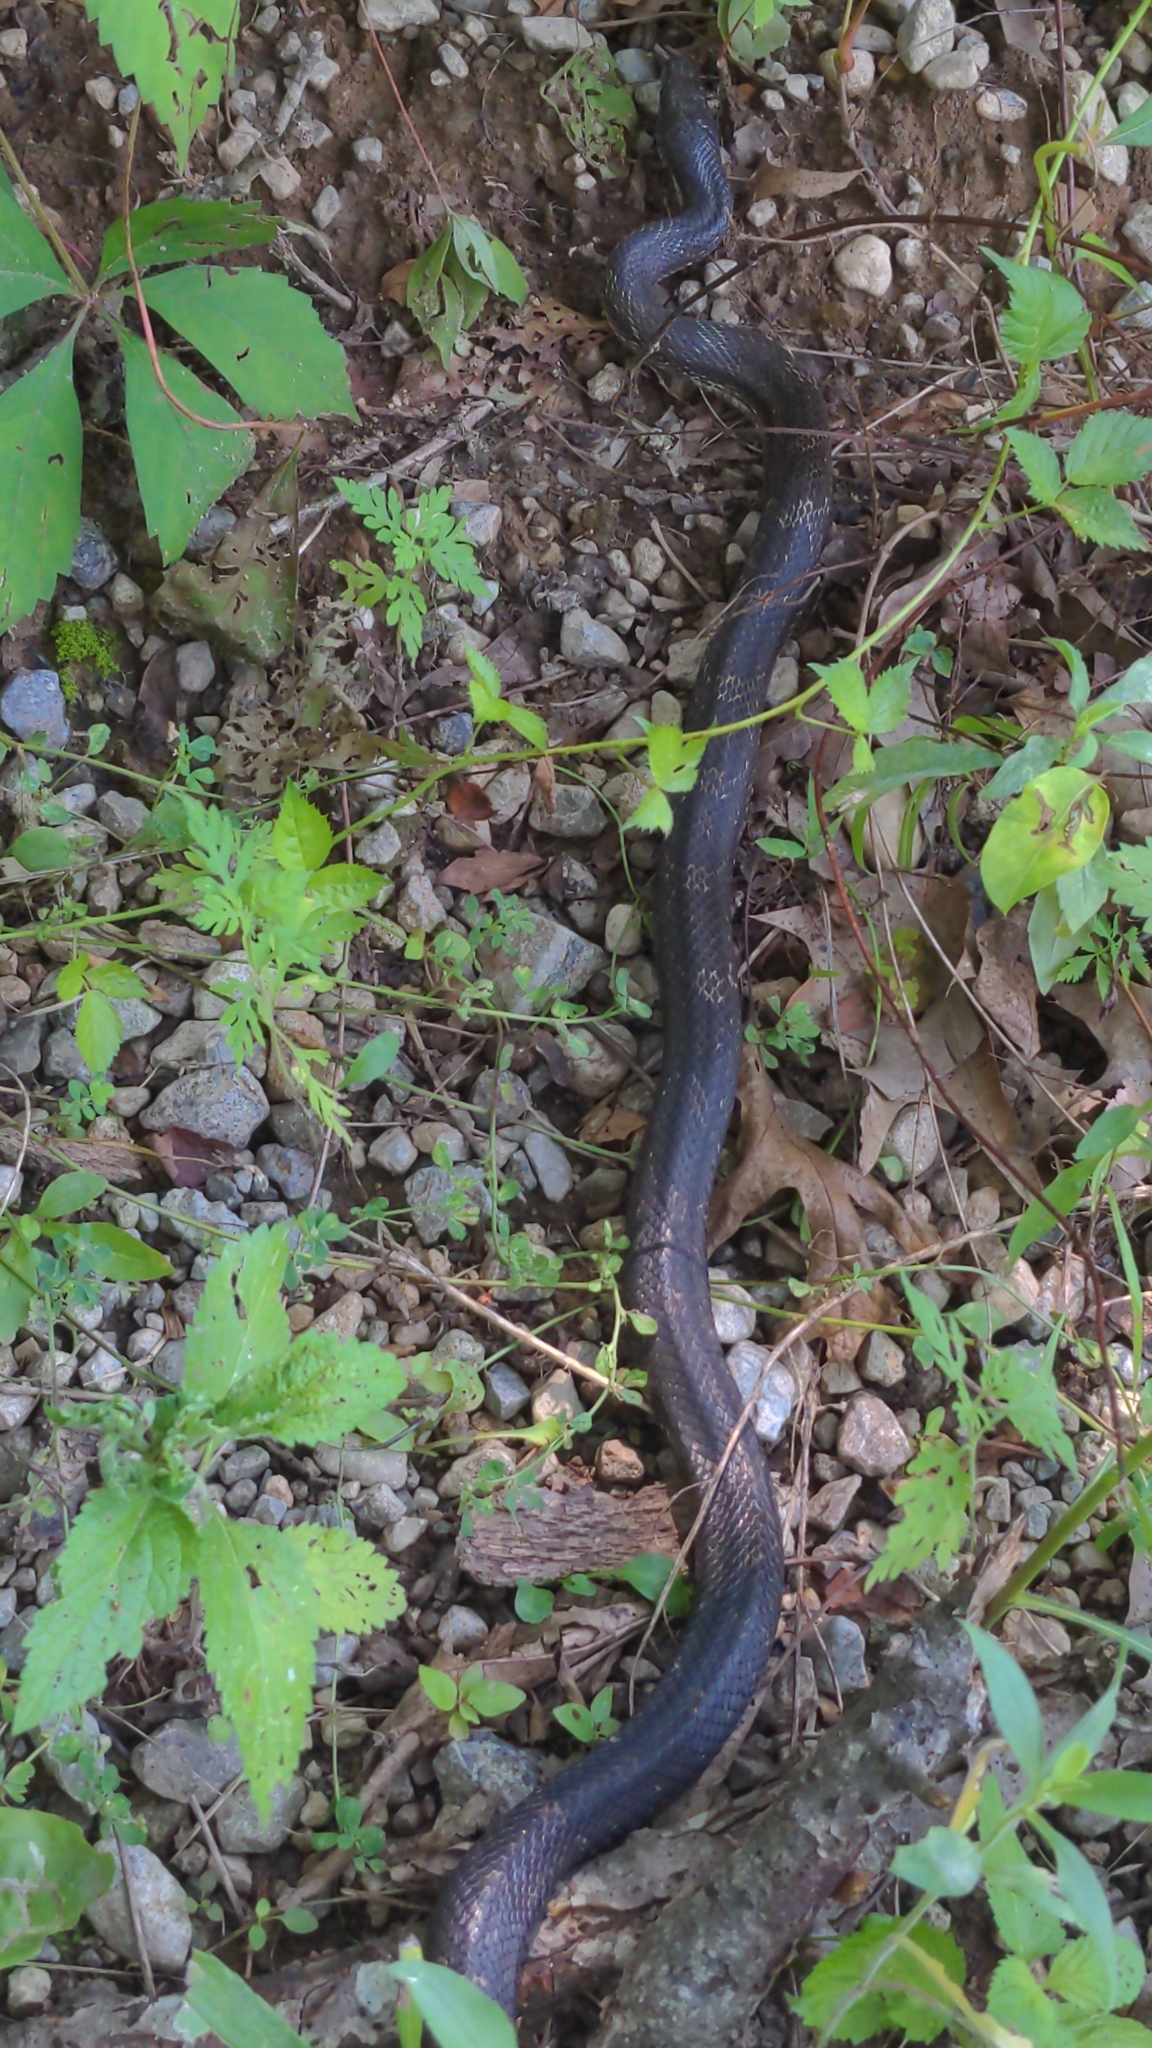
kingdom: Animalia
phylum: Chordata
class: Squamata
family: Colubridae
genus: Pantherophis
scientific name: Pantherophis spiloides
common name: Gray rat snake
